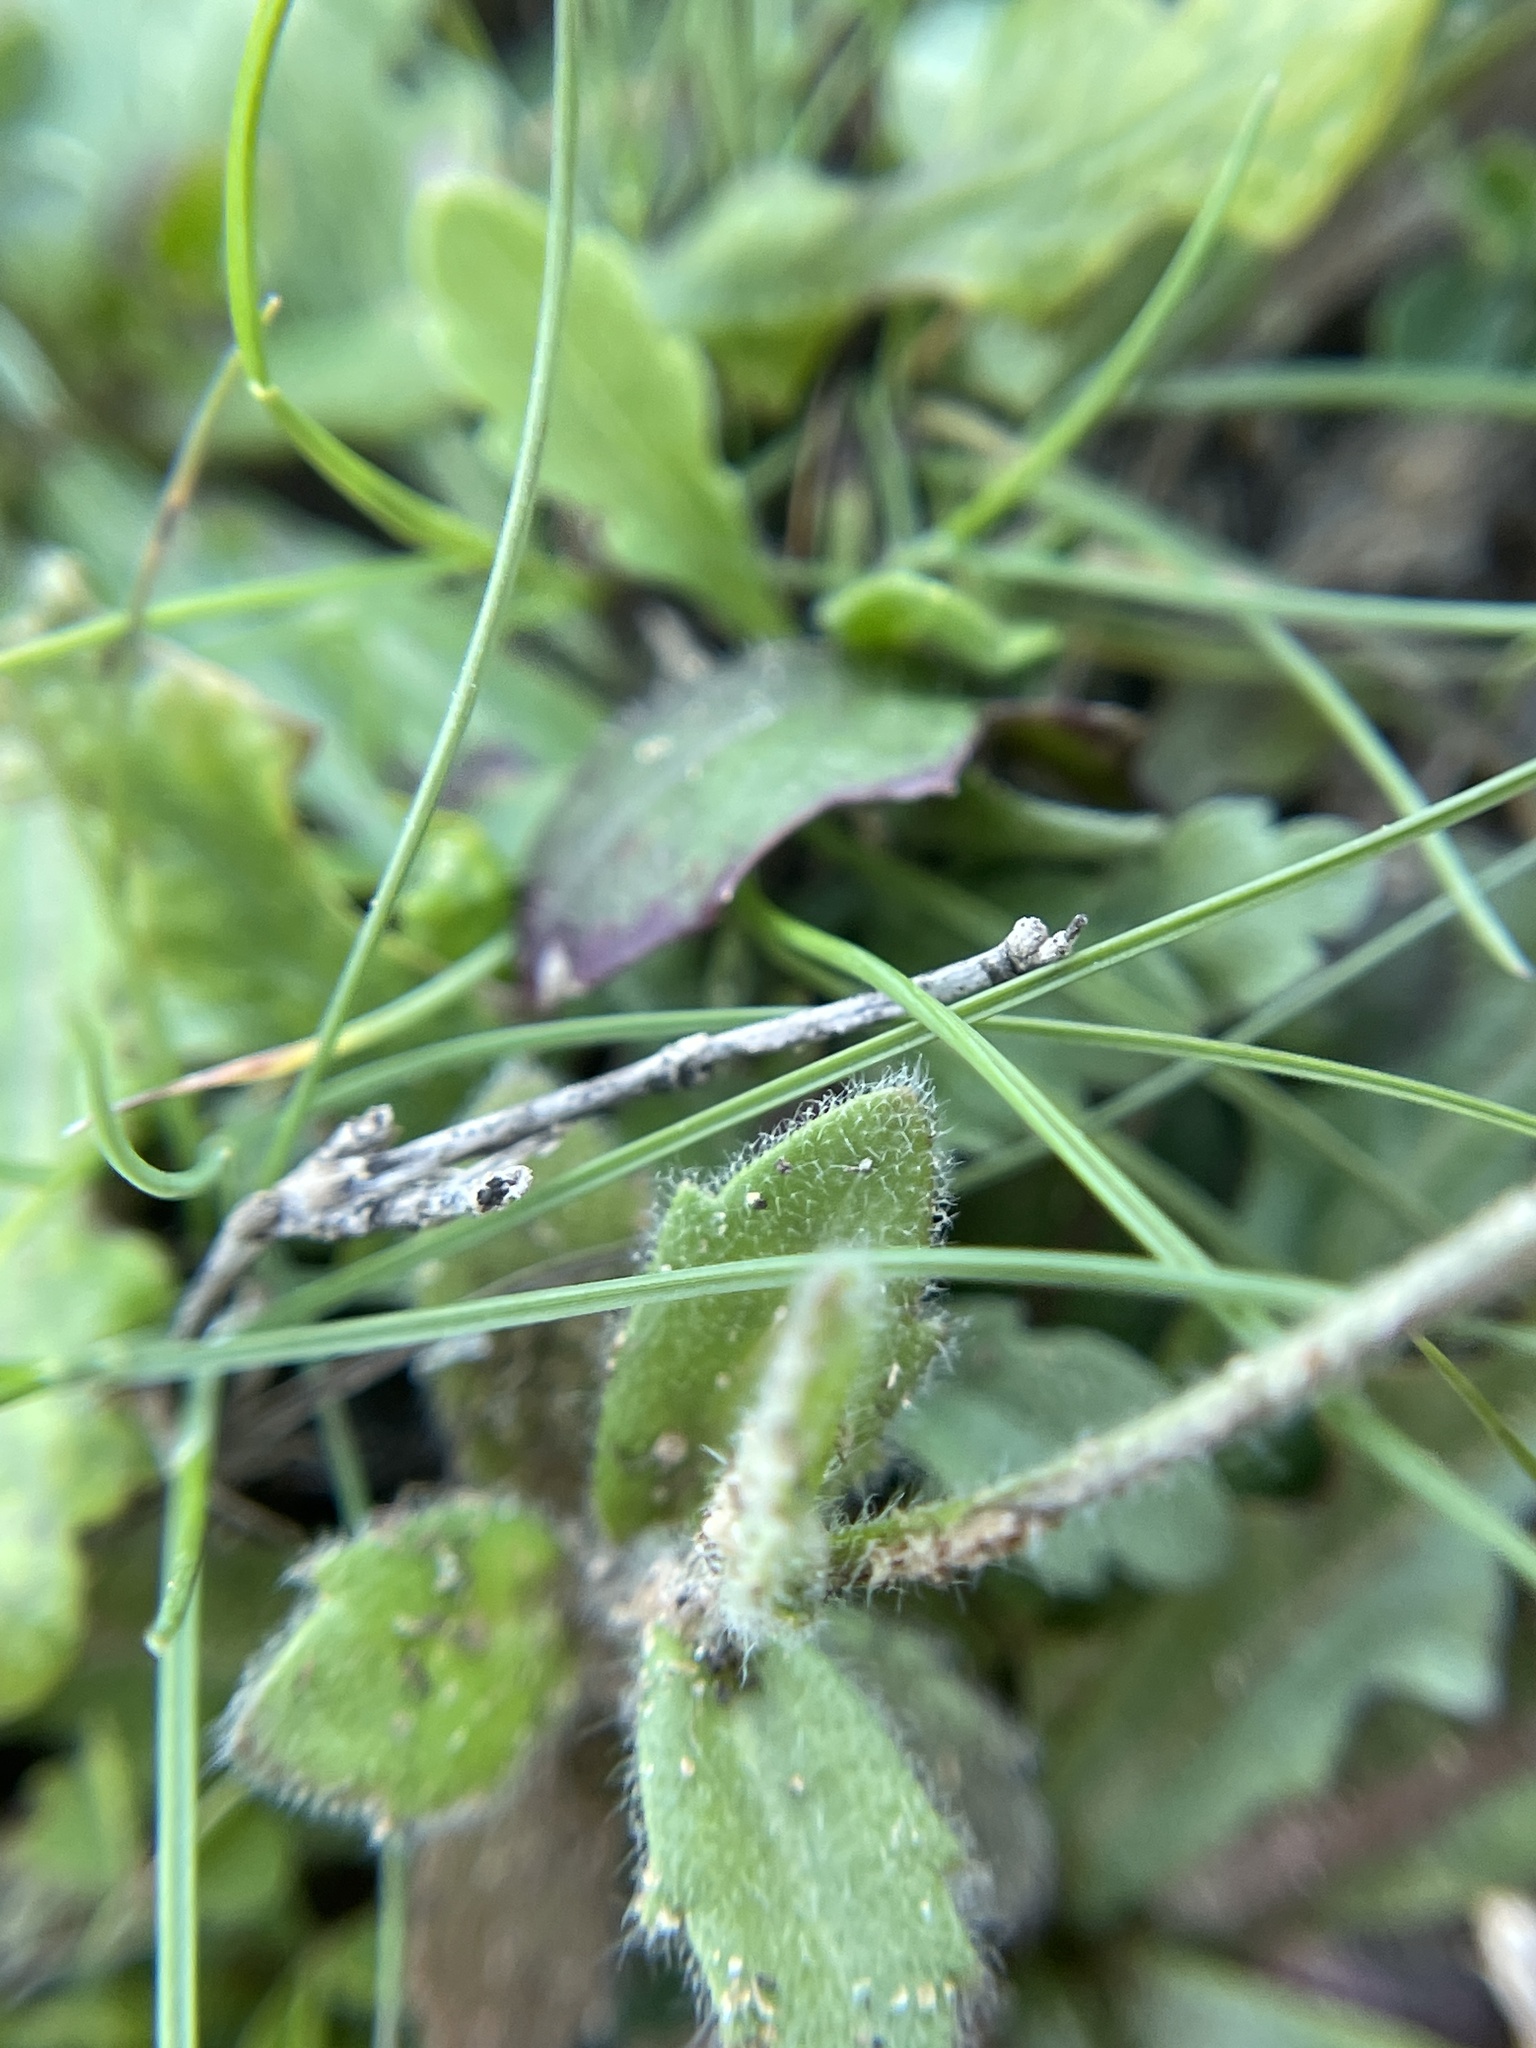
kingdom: Plantae
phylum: Tracheophyta
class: Magnoliopsida
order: Brassicales
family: Brassicaceae
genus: Tomostima
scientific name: Tomostima platycarpa
